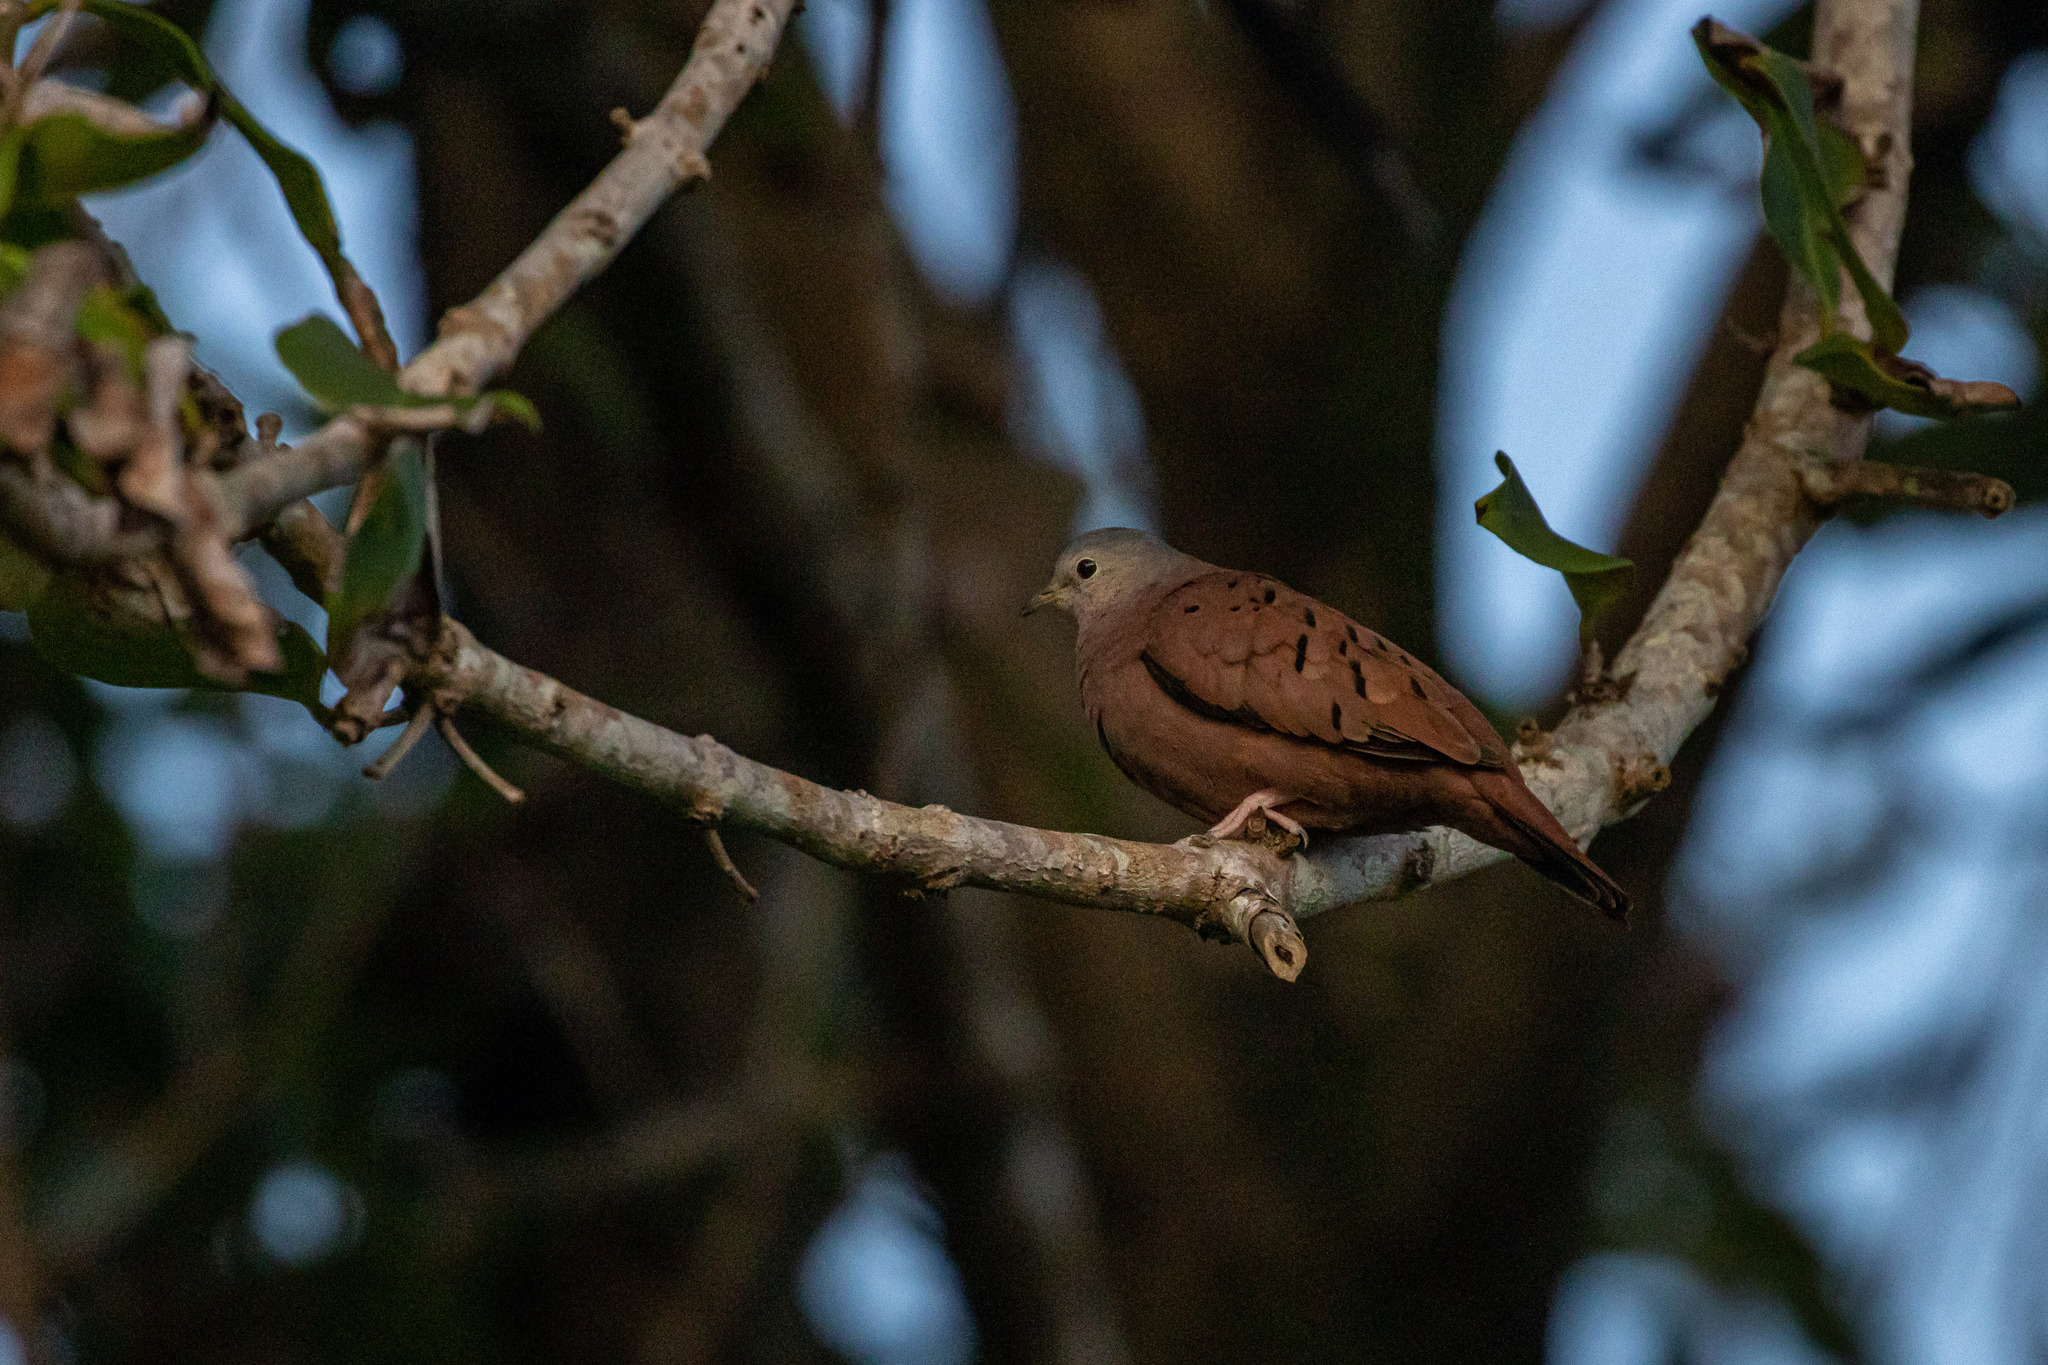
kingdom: Animalia
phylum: Chordata
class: Aves
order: Columbiformes
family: Columbidae
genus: Columbina
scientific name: Columbina talpacoti
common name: Ruddy ground dove
